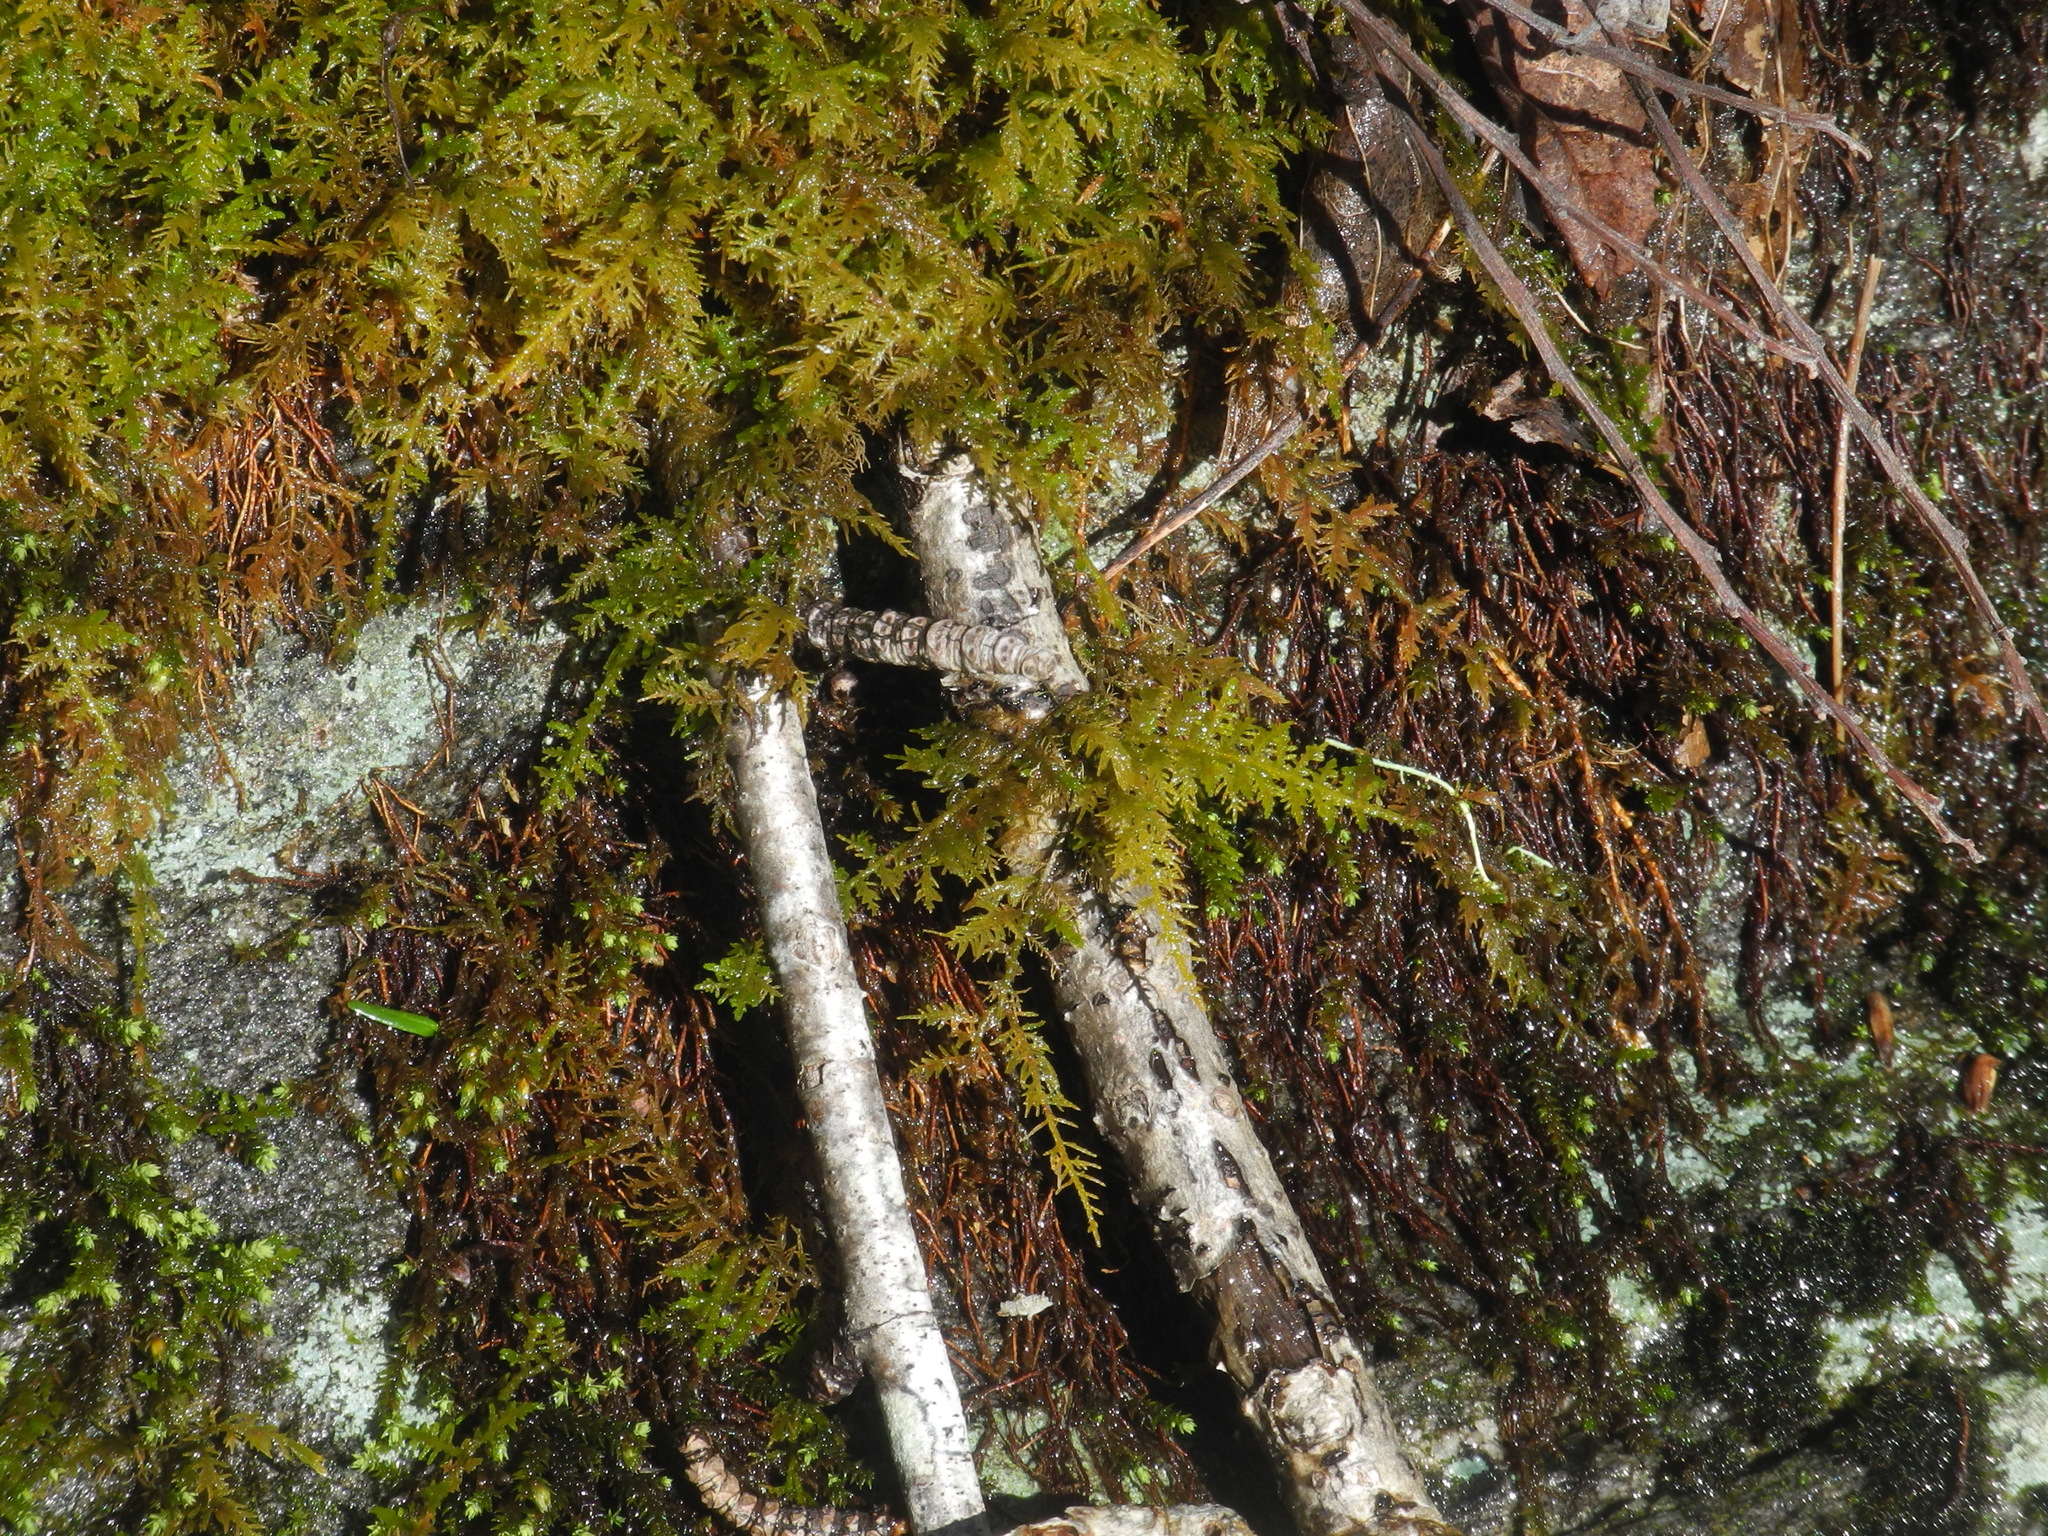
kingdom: Plantae
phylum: Bryophyta
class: Bryopsida
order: Hypnales
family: Thuidiaceae
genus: Thuidium
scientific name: Thuidium delicatulum
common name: Delicate fern moss
